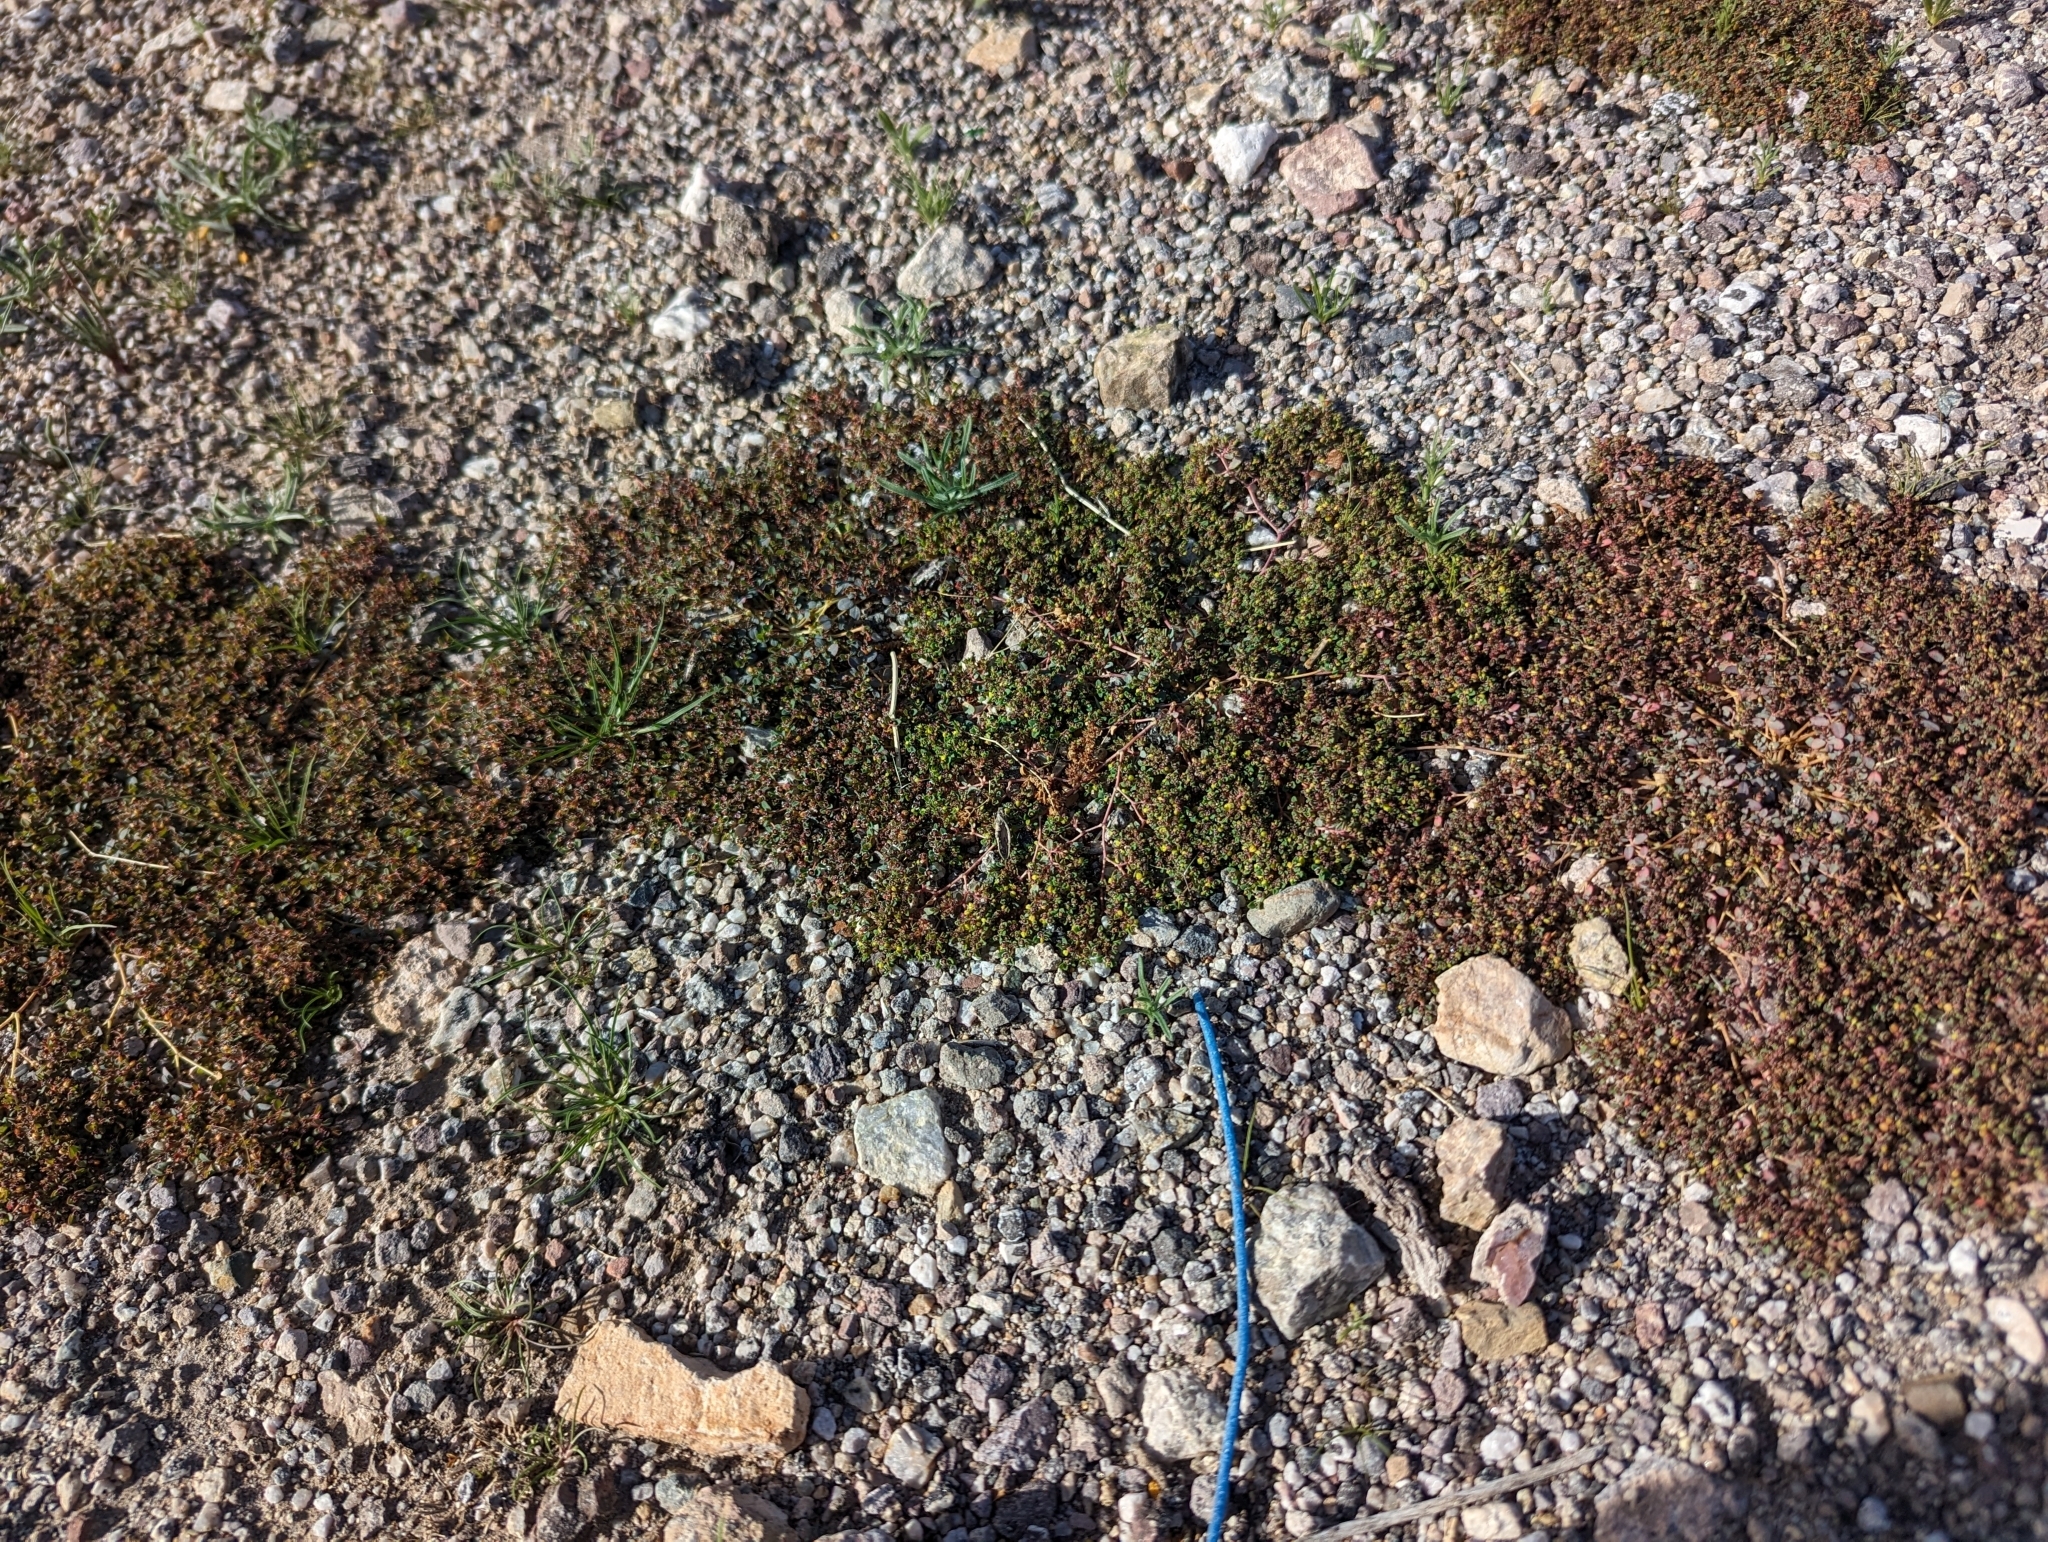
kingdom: Plantae
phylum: Tracheophyta
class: Magnoliopsida
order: Malpighiales
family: Euphorbiaceae
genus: Euphorbia
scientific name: Euphorbia polycarpa
